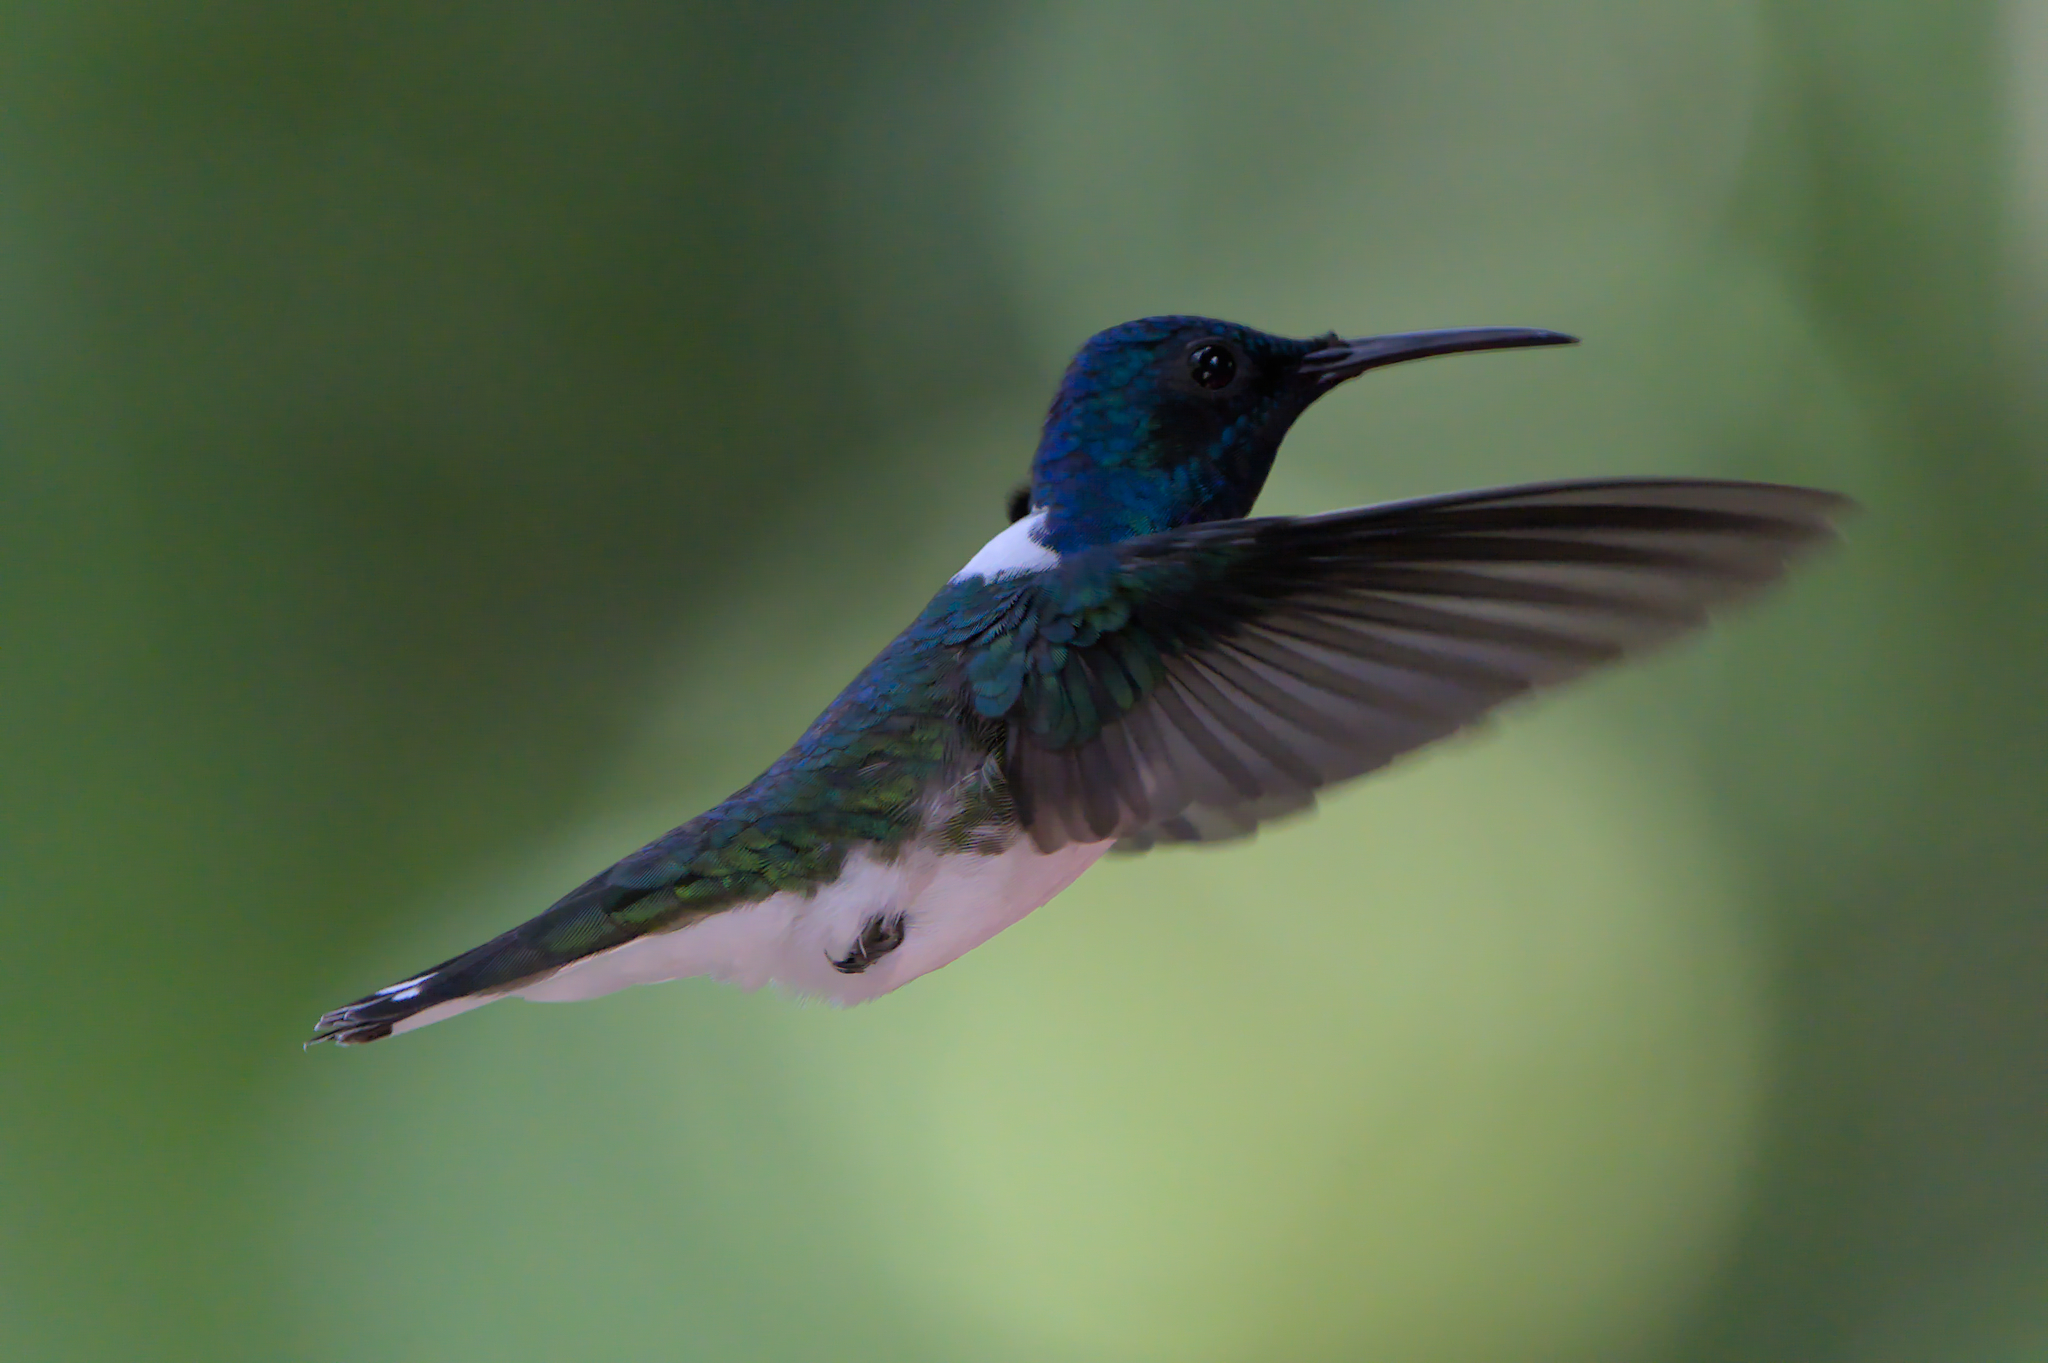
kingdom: Animalia
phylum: Chordata
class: Aves
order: Apodiformes
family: Trochilidae
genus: Florisuga
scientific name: Florisuga mellivora
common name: White-necked jacobin
